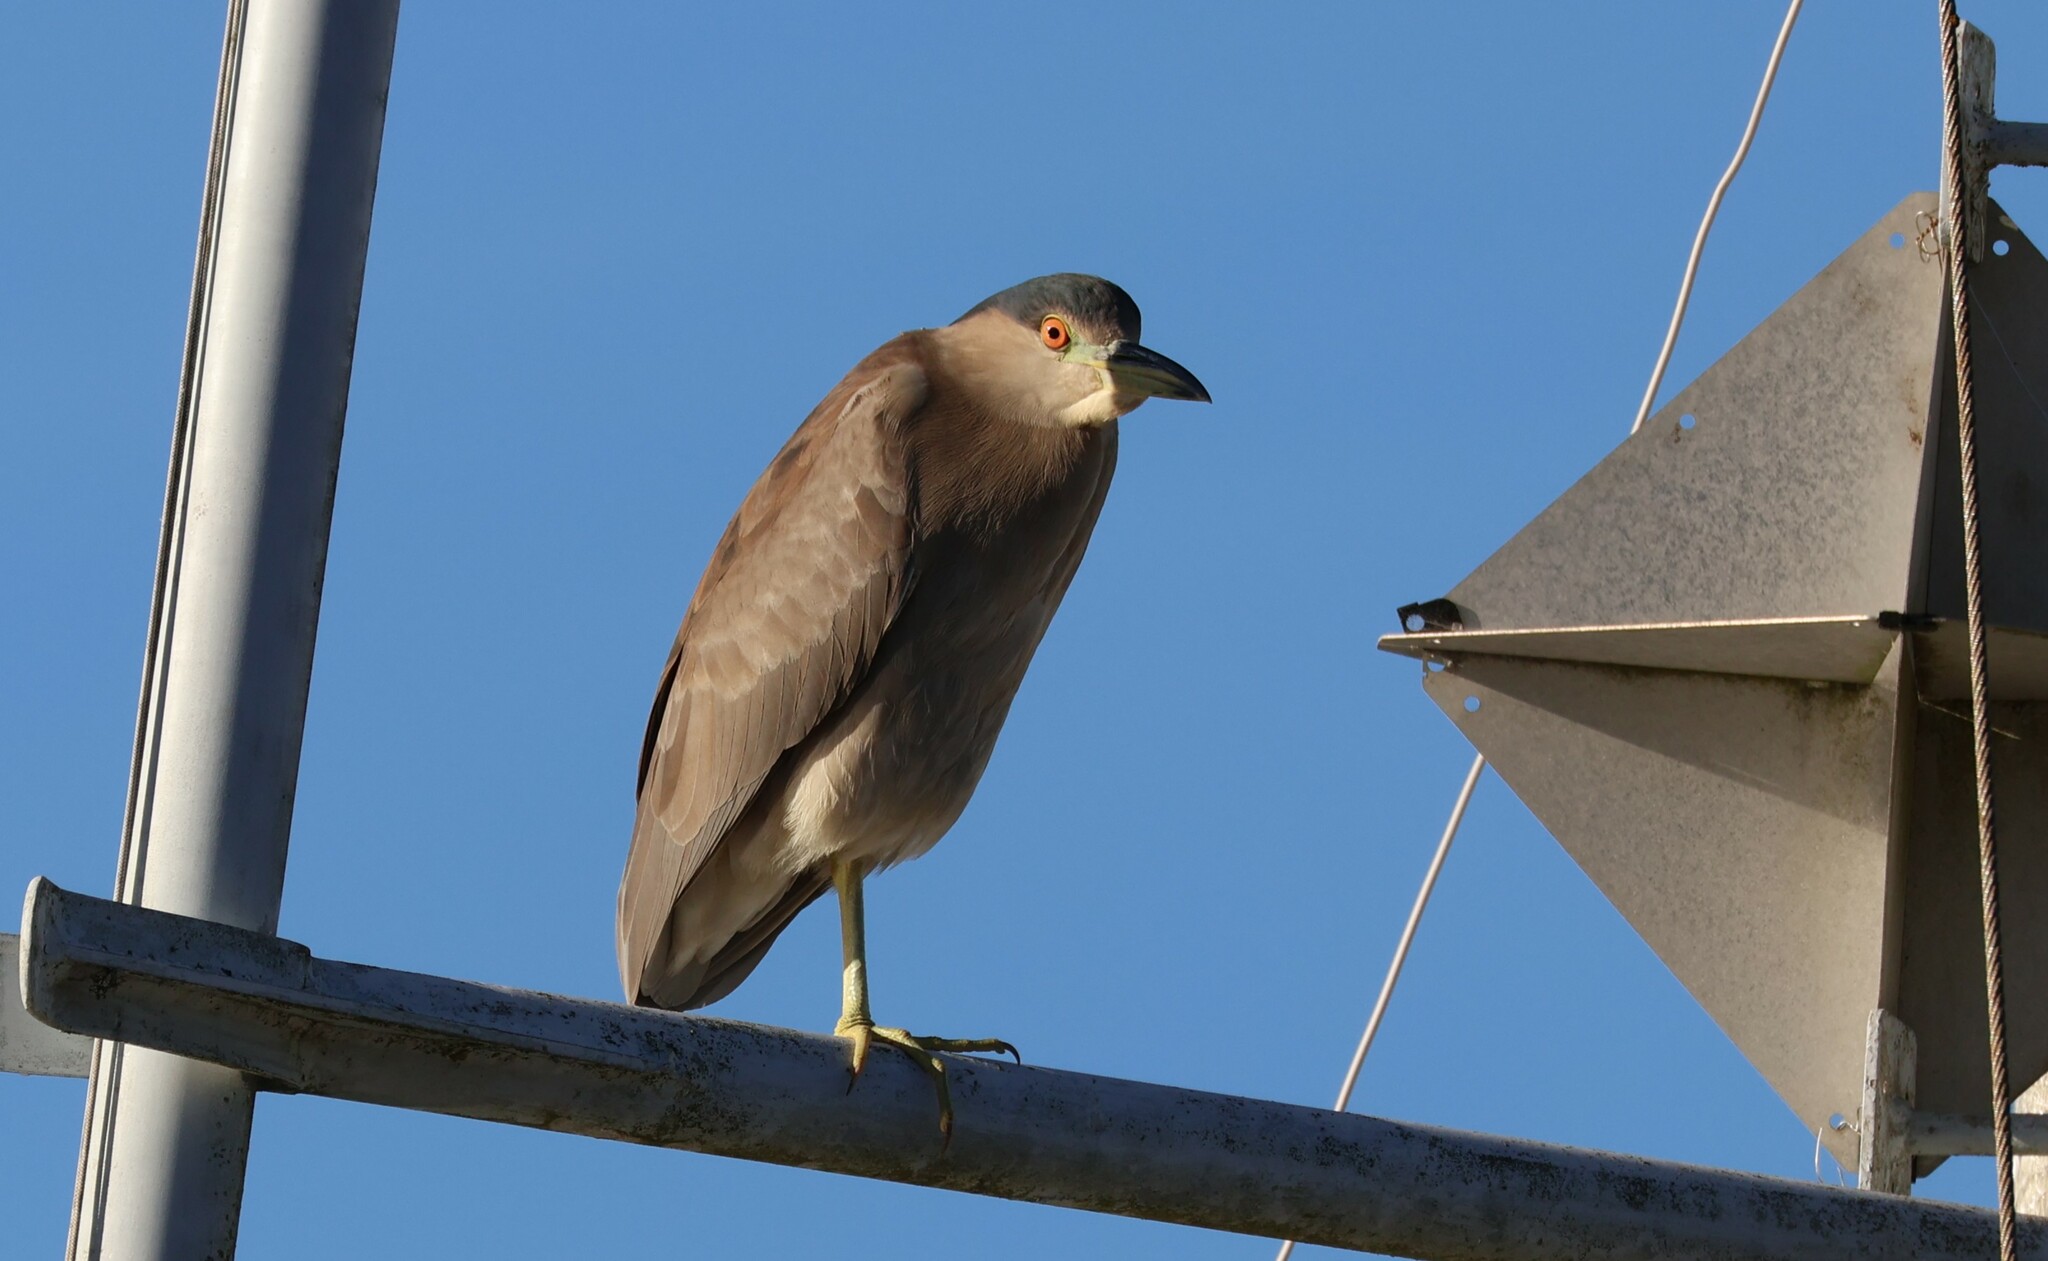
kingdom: Animalia
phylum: Chordata
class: Aves
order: Pelecaniformes
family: Ardeidae
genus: Nycticorax
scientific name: Nycticorax nycticorax
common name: Black-crowned night heron
